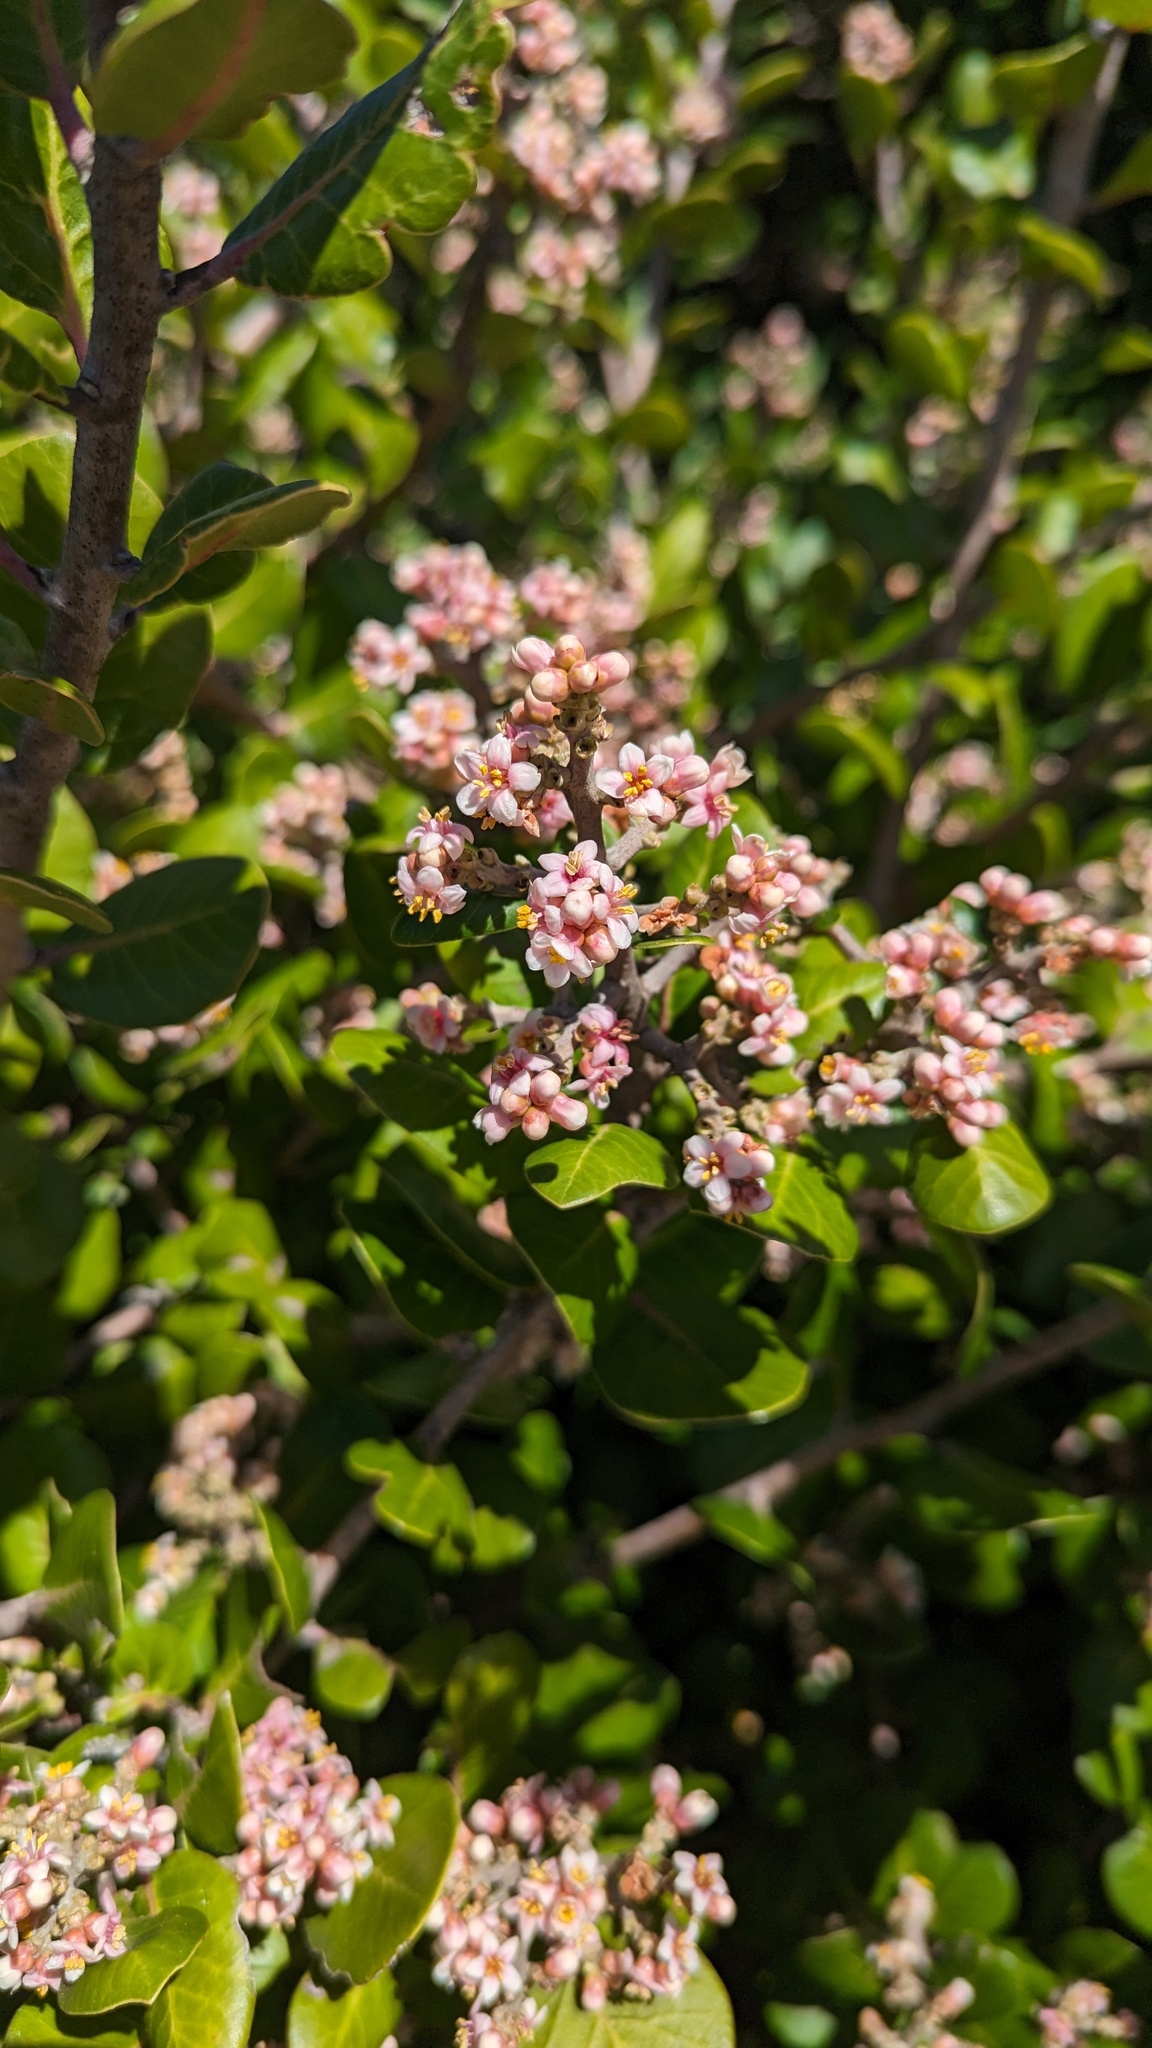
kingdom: Plantae
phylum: Tracheophyta
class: Magnoliopsida
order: Sapindales
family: Anacardiaceae
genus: Rhus
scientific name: Rhus integrifolia
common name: Lemonade sumac
